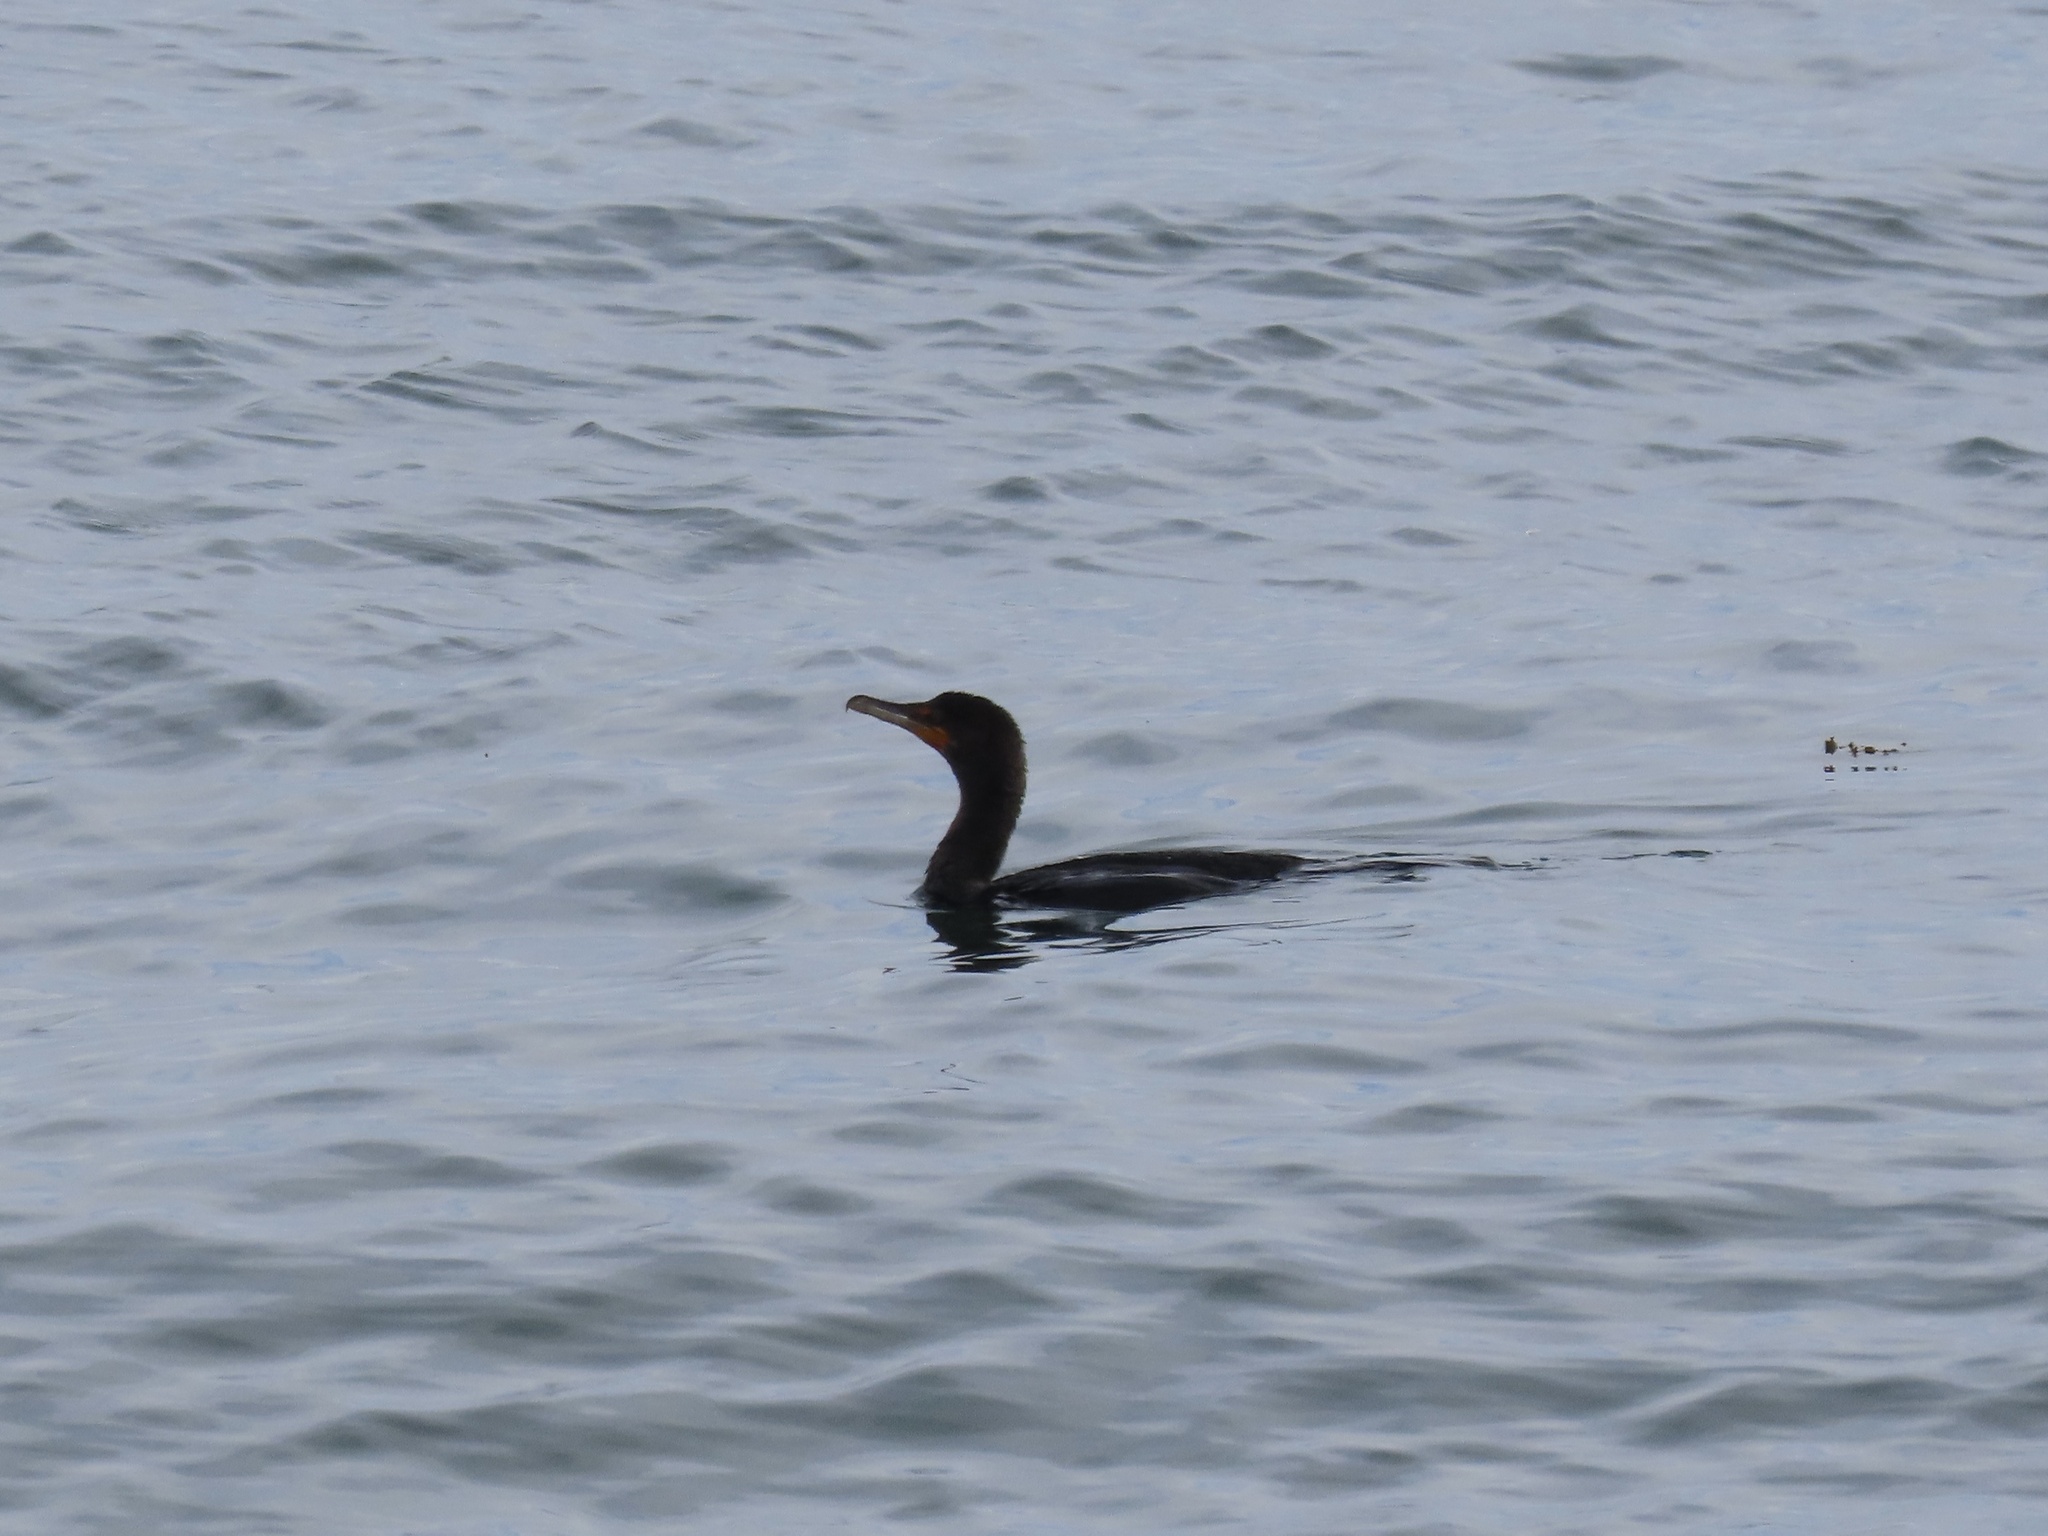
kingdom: Animalia
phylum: Chordata
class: Aves
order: Suliformes
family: Phalacrocoracidae
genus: Phalacrocorax
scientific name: Phalacrocorax auritus
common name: Double-crested cormorant
